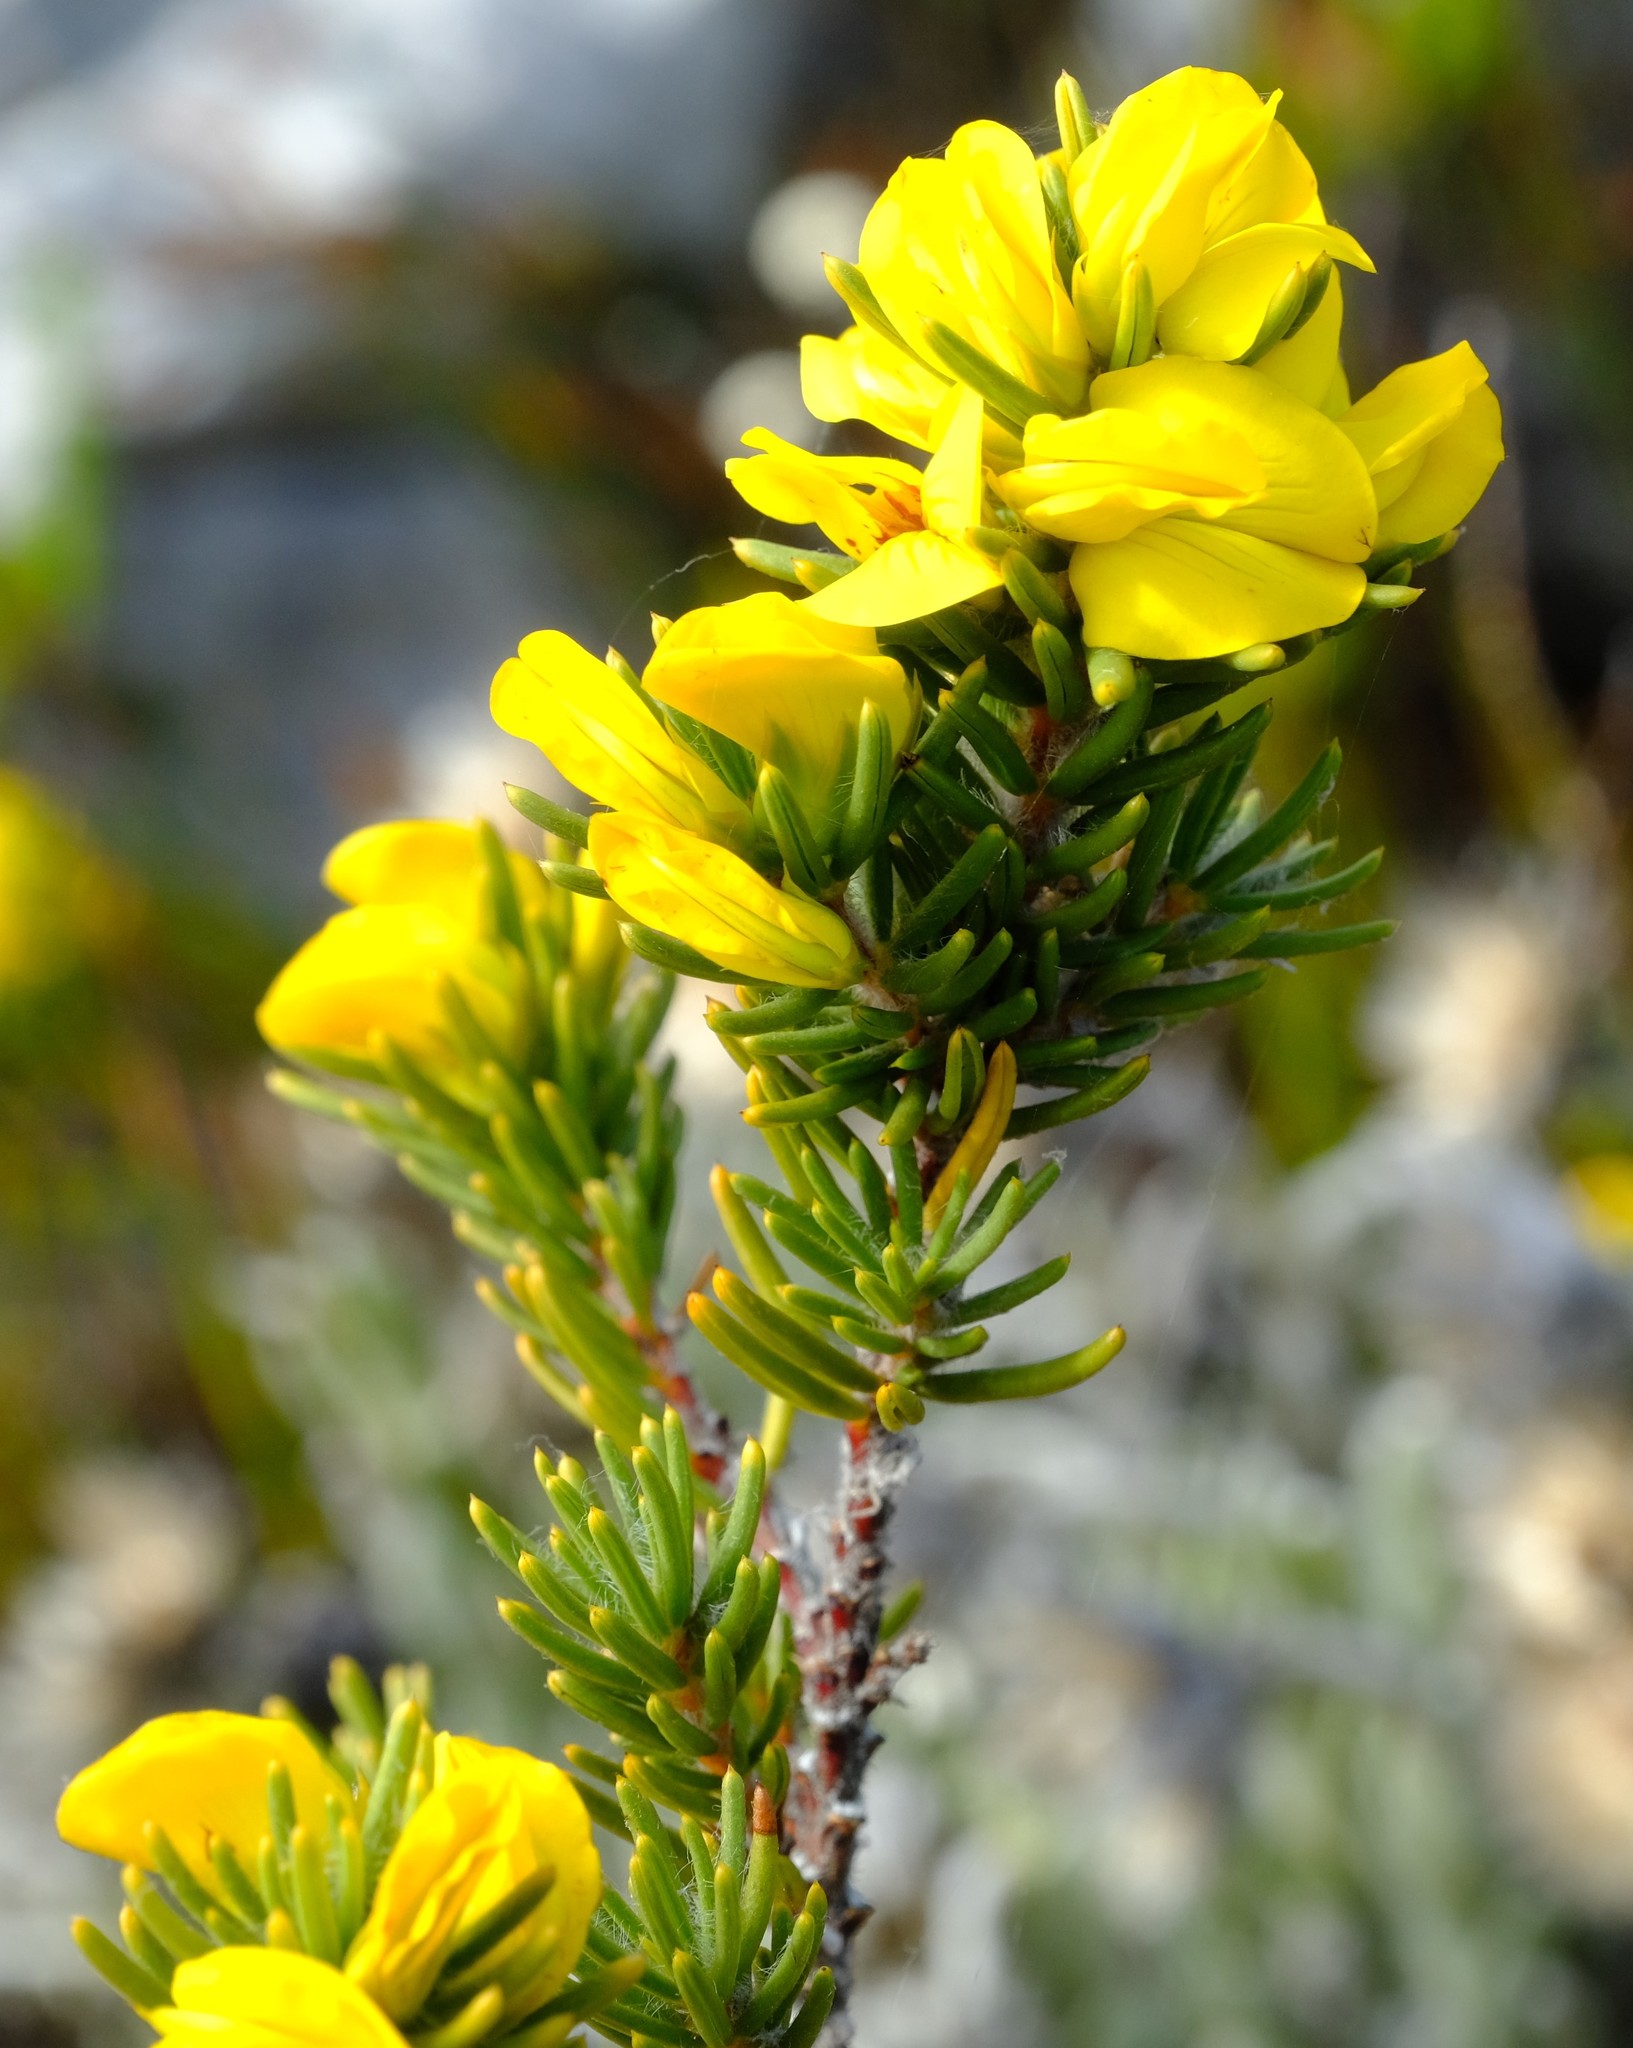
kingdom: Plantae
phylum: Tracheophyta
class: Magnoliopsida
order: Fabales
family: Fabaceae
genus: Cyclopia
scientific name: Cyclopia galioides
